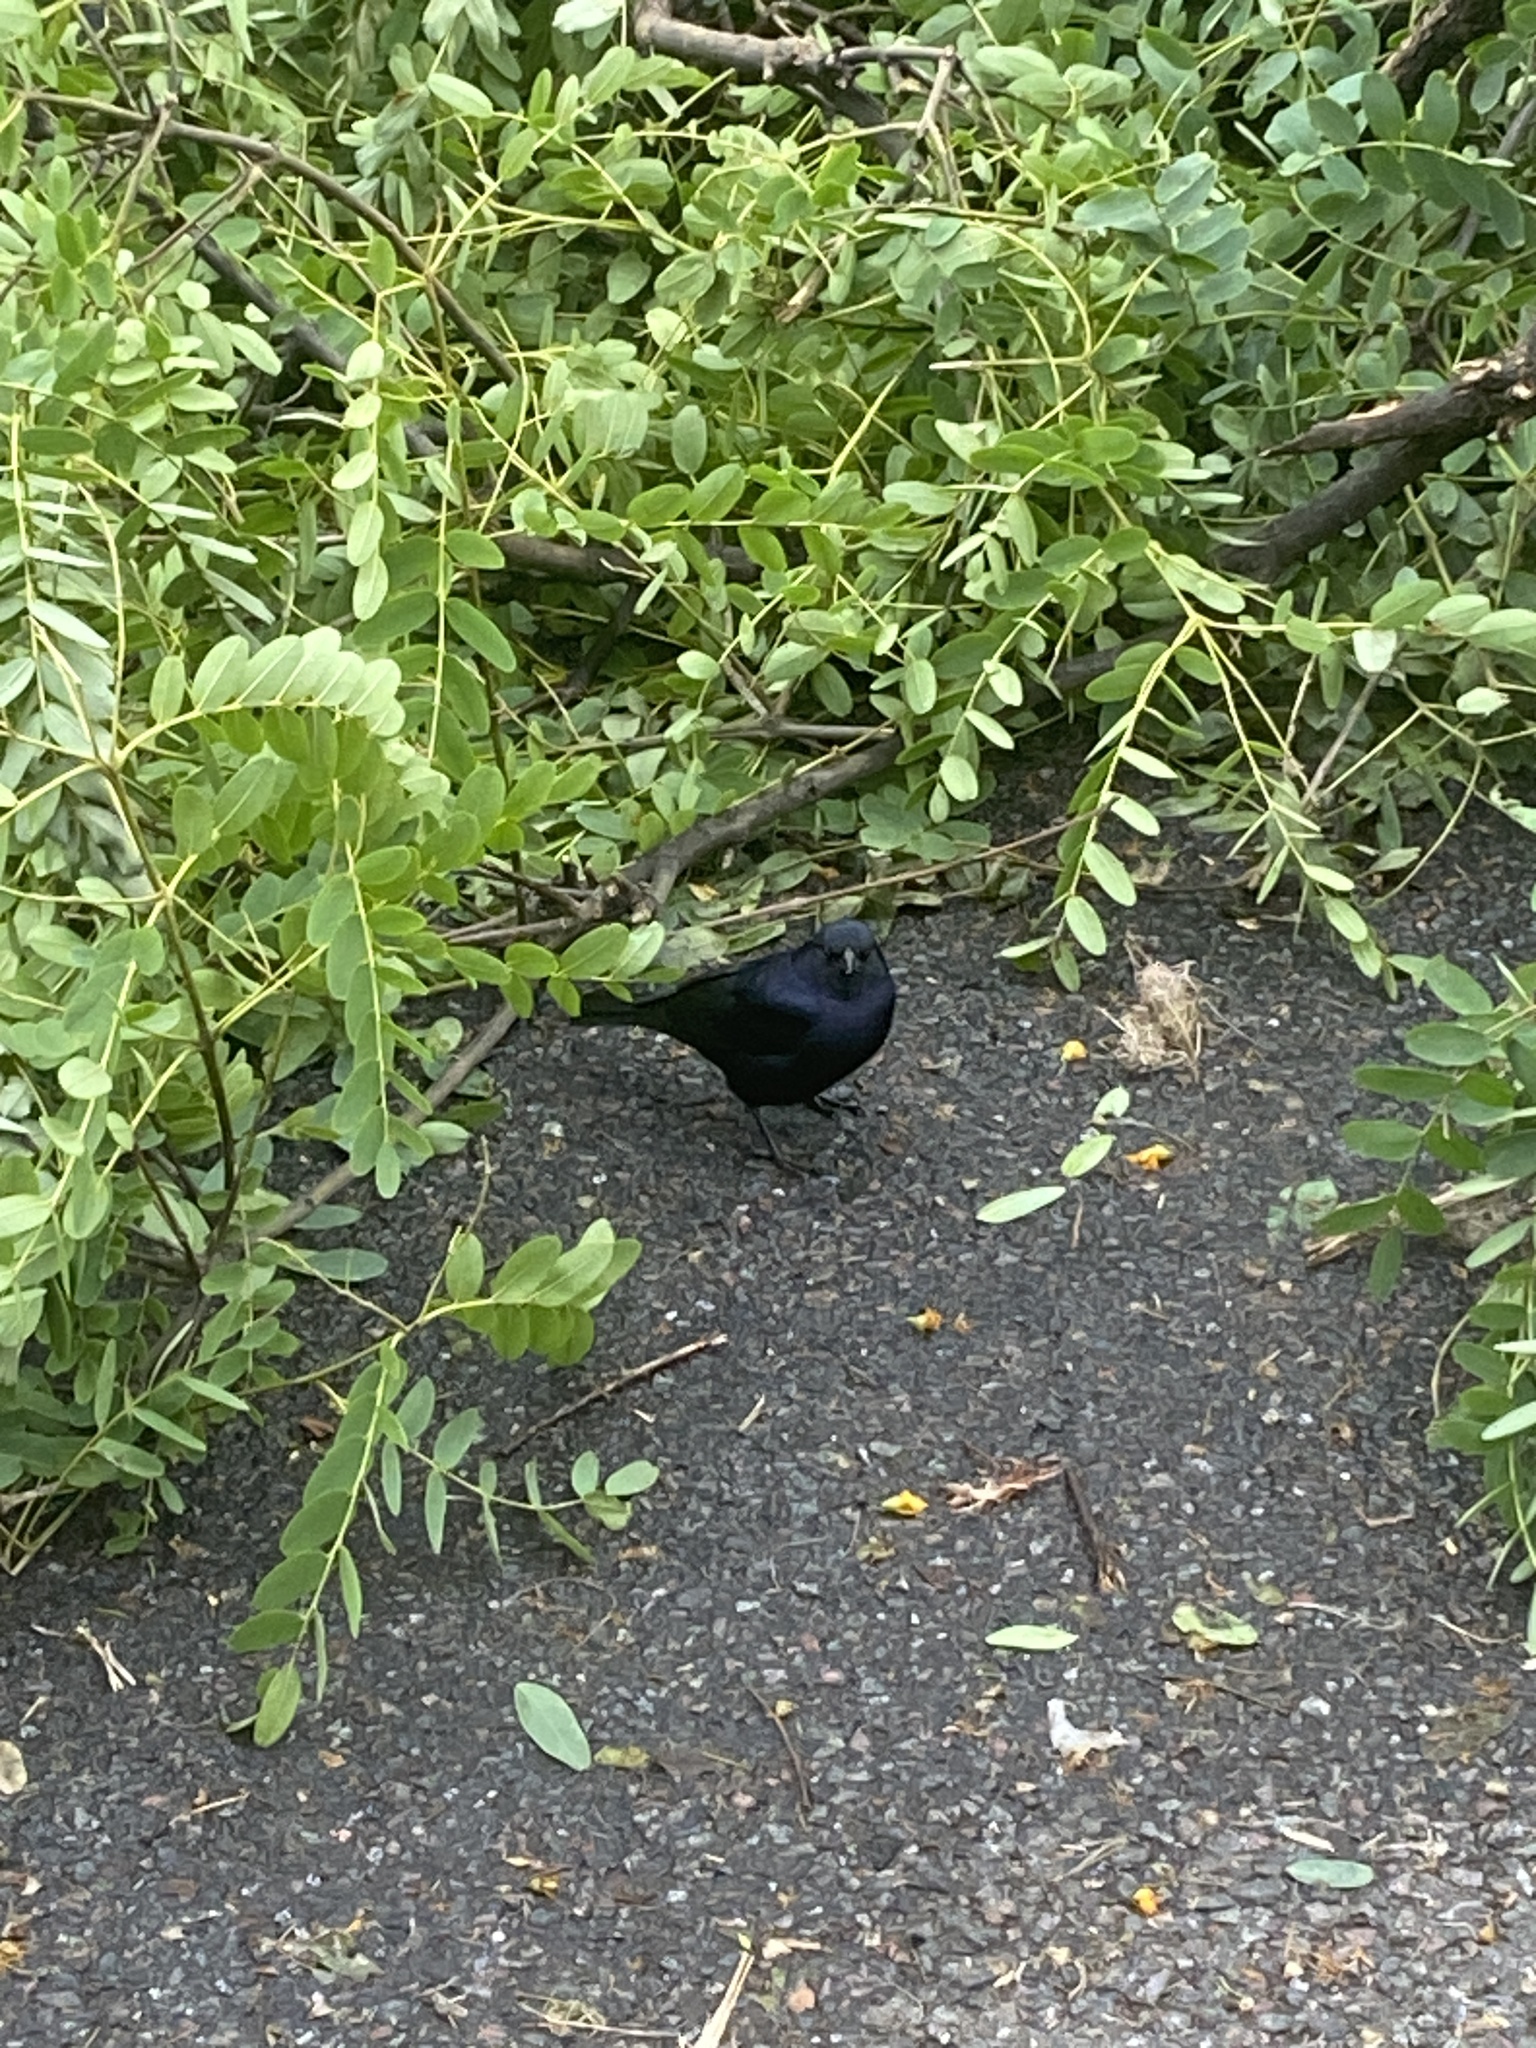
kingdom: Animalia
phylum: Chordata
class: Aves
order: Passeriformes
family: Icteridae
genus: Molothrus
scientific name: Molothrus bonariensis
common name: Shiny cowbird
